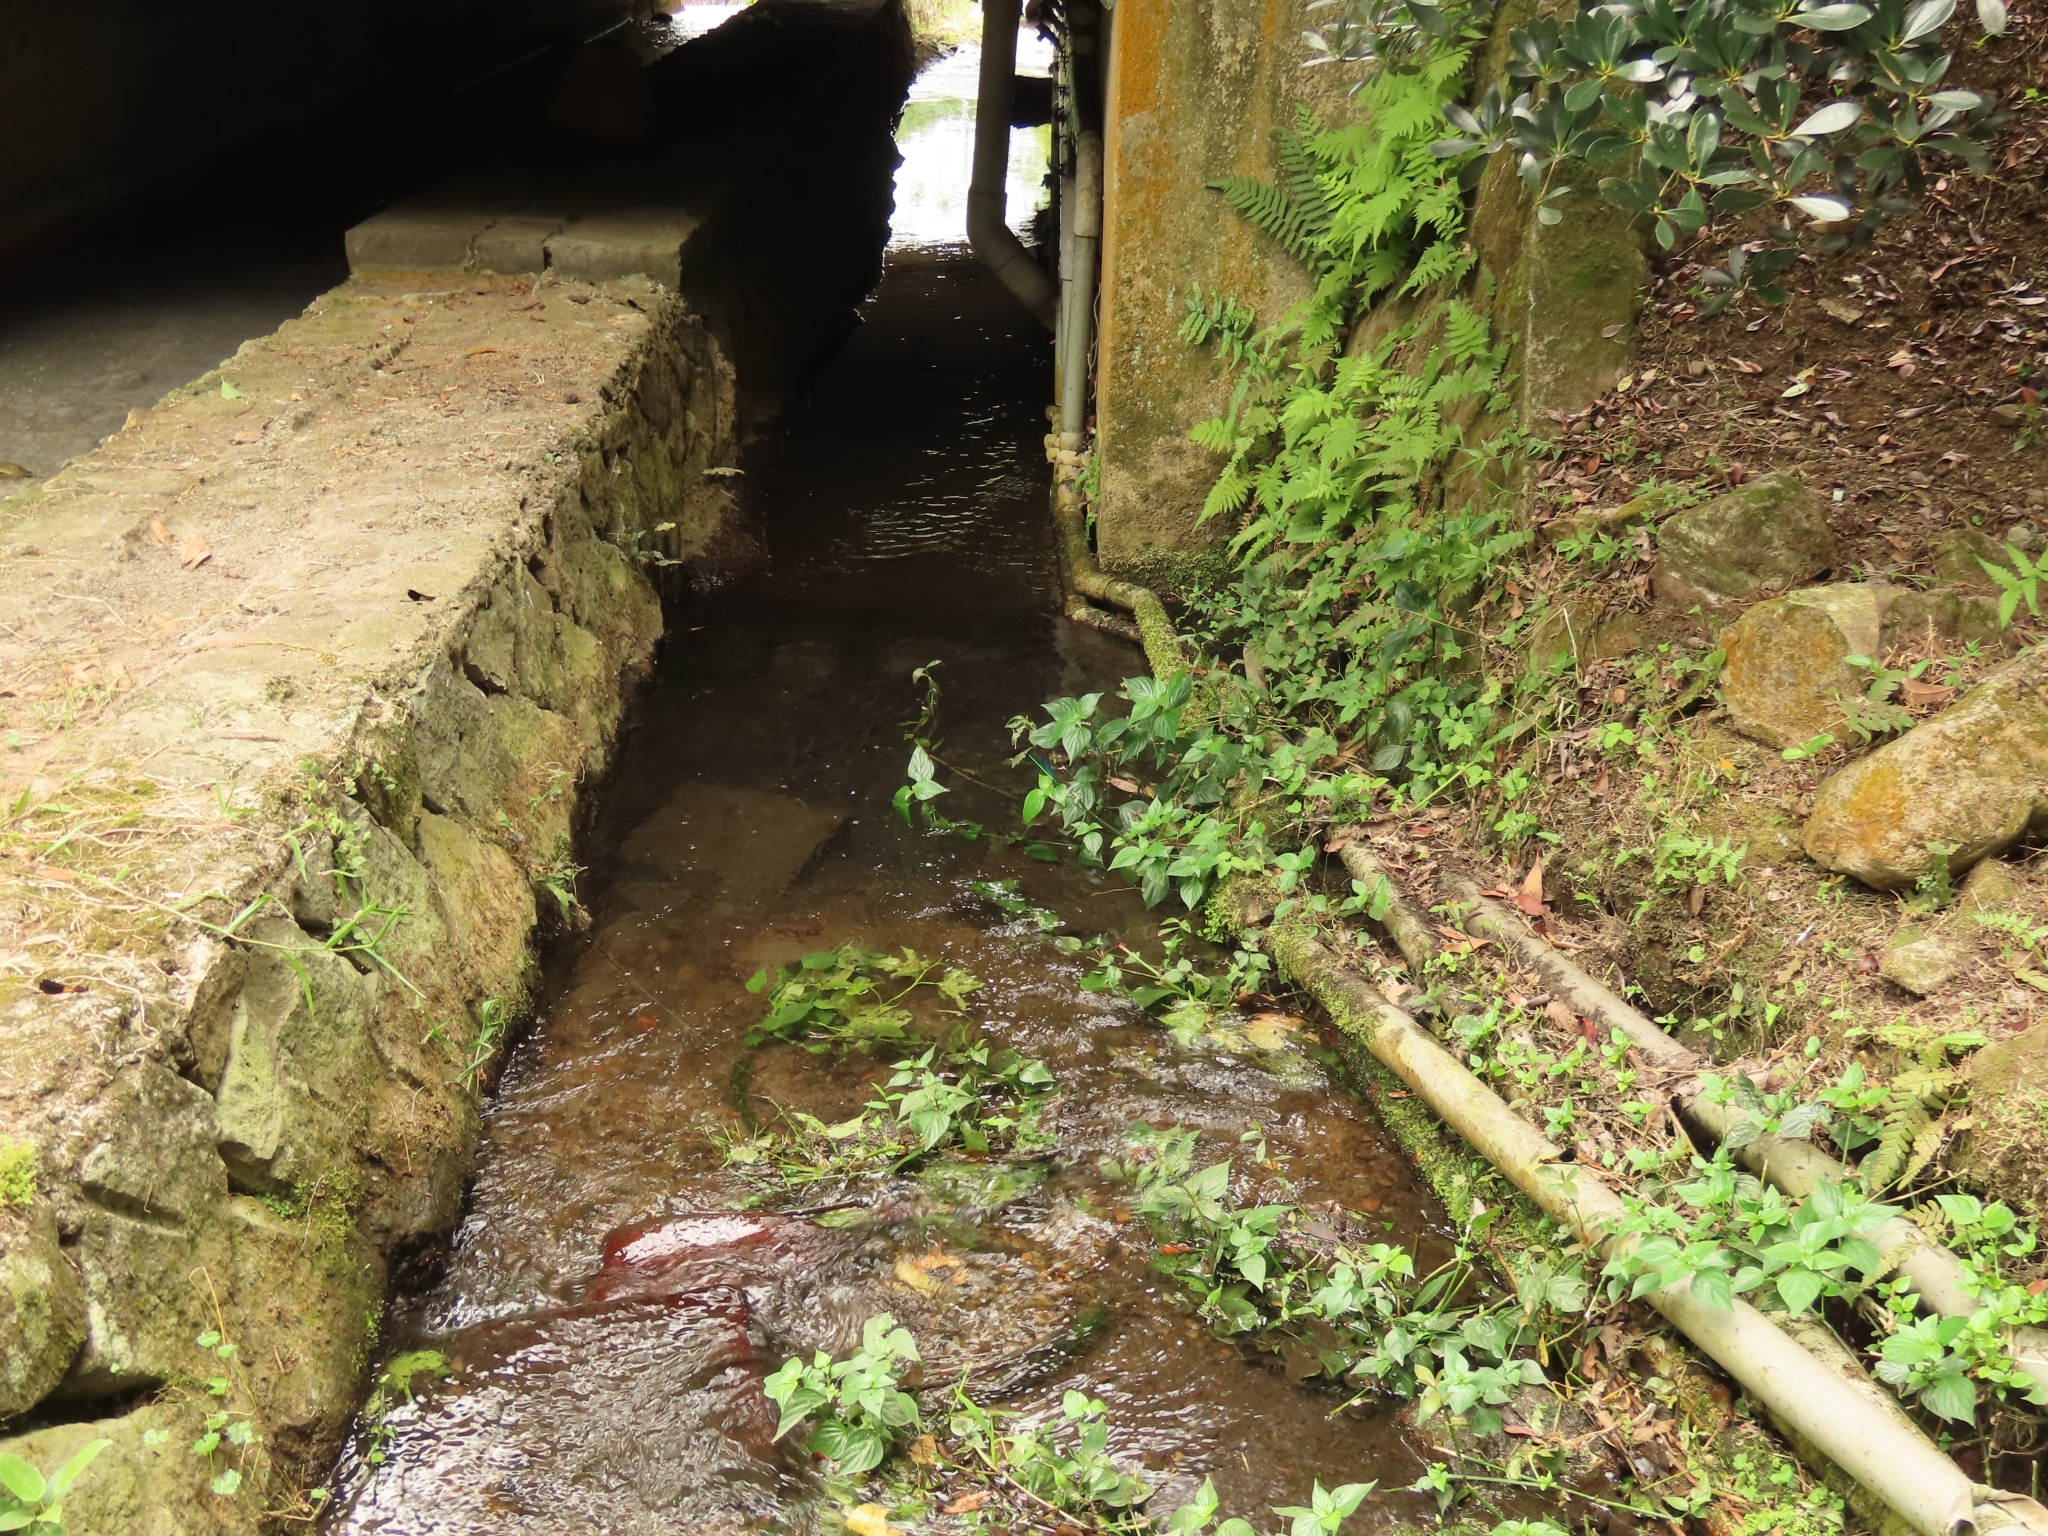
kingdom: Animalia
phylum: Arthropoda
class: Insecta
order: Odonata
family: Calopterygidae
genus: Matrona
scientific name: Matrona cyanoptera
